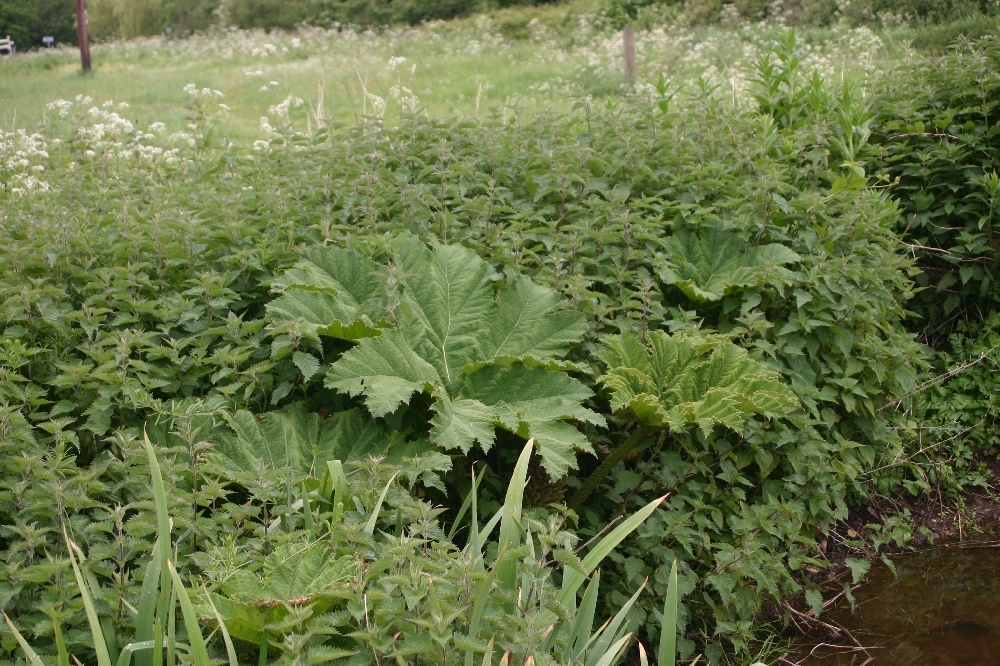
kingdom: Plantae
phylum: Tracheophyta
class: Magnoliopsida
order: Gunnerales
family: Gunneraceae
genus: Gunnera
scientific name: Gunnera tinctoria
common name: Giant-rhubarb
